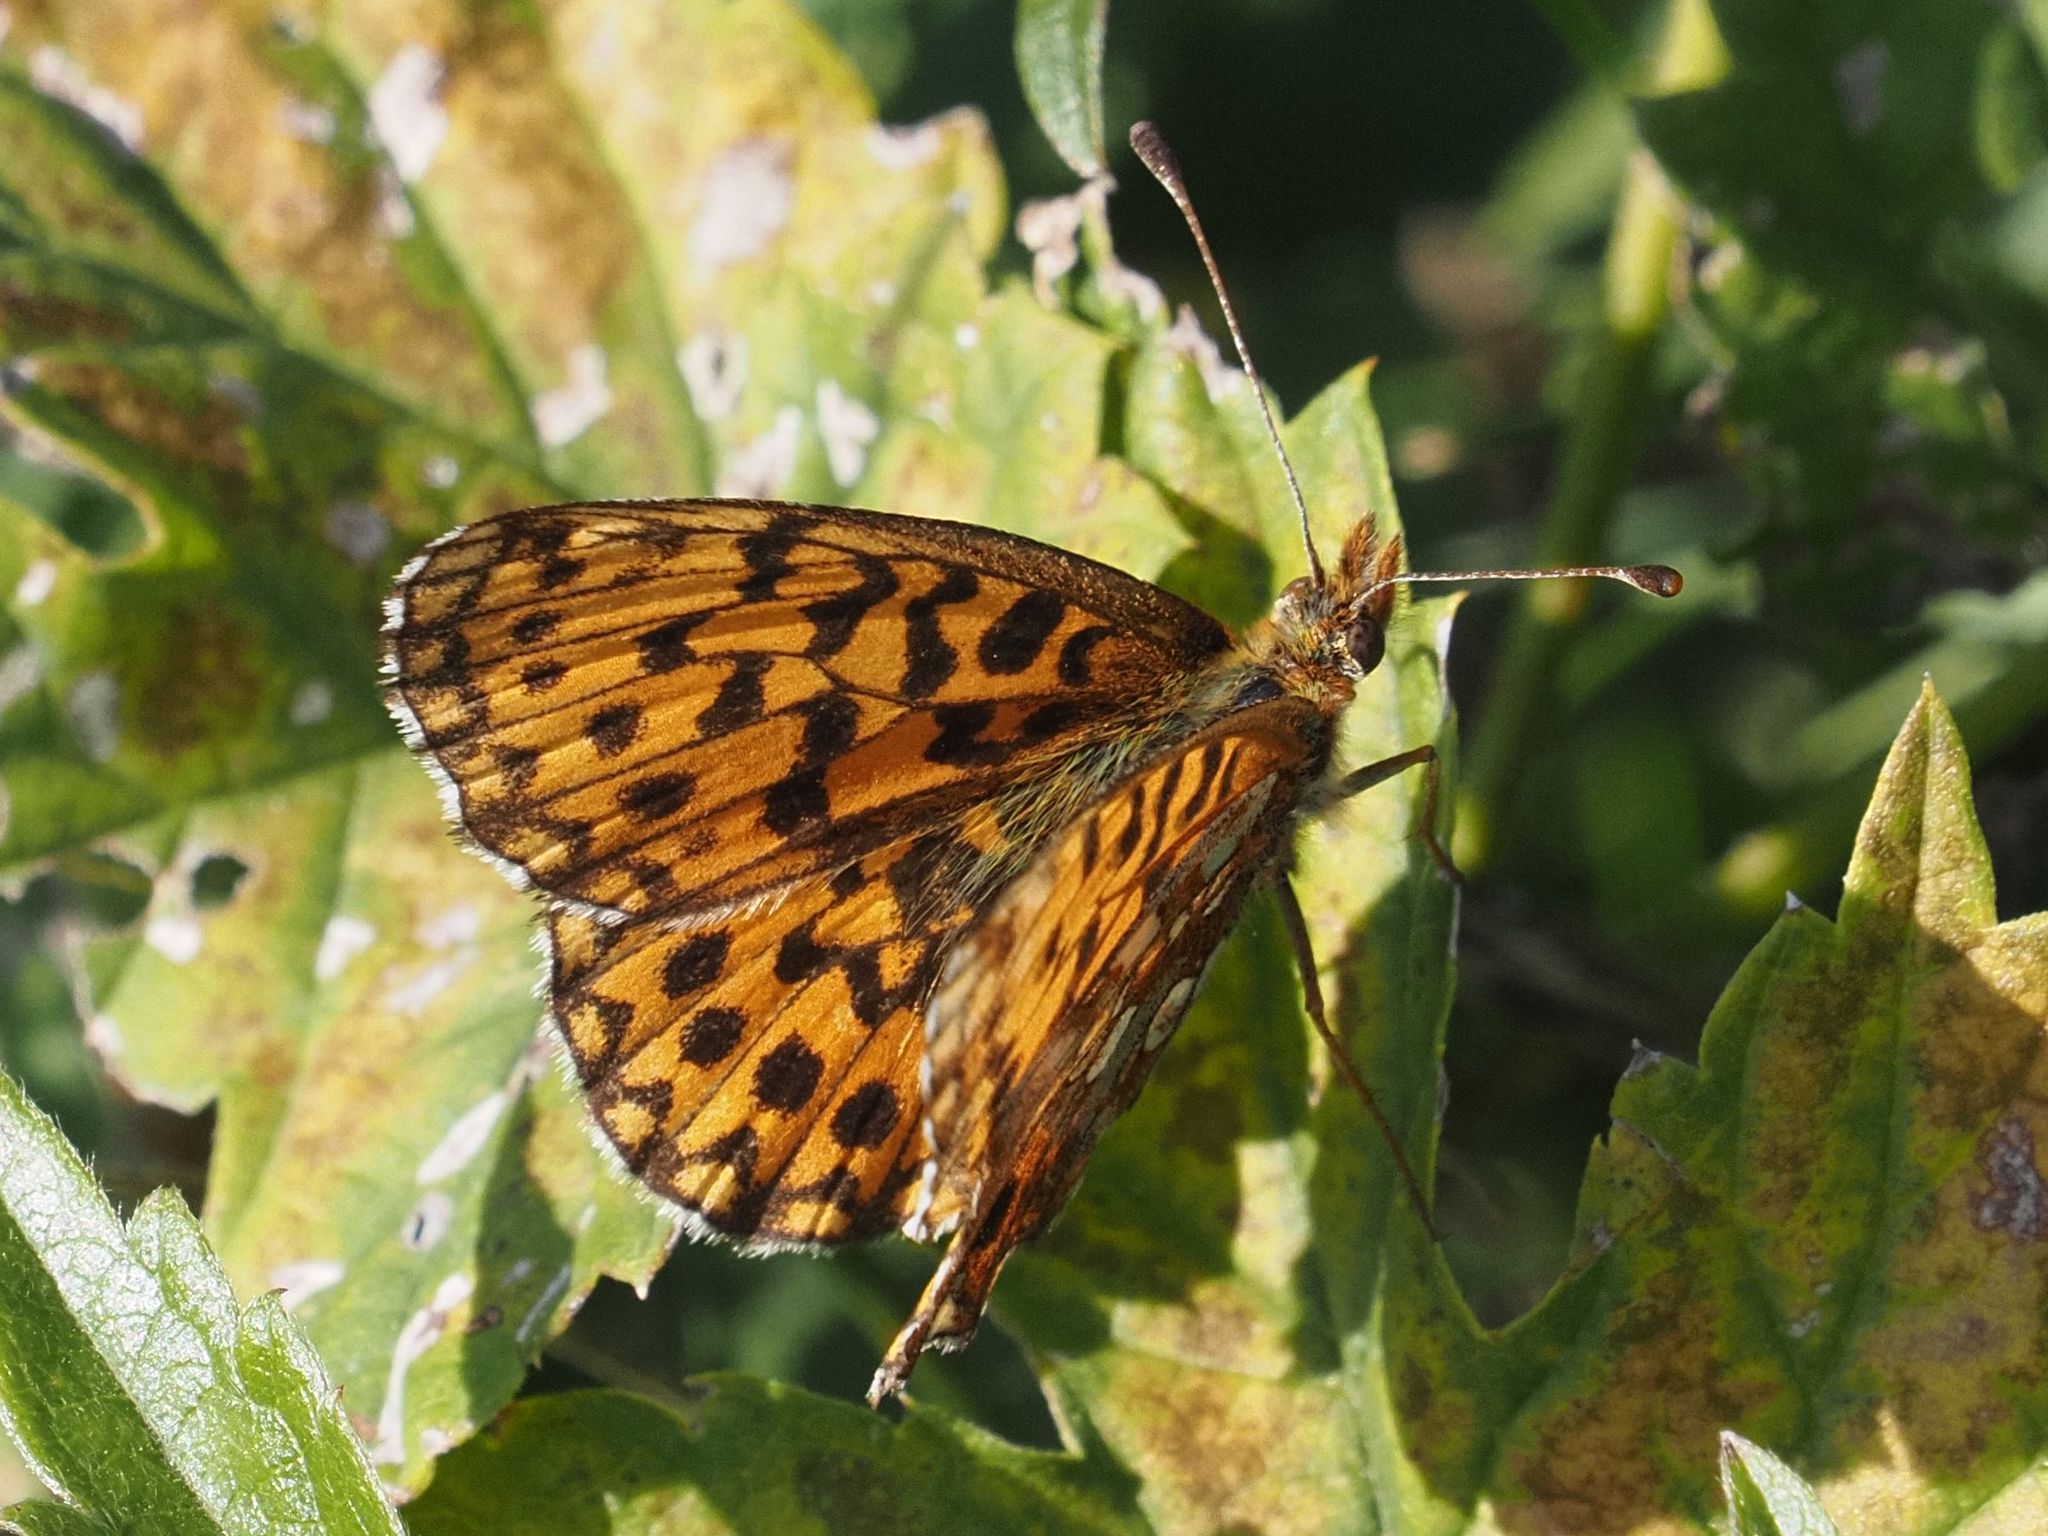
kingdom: Animalia
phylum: Arthropoda
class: Insecta
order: Lepidoptera
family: Nymphalidae
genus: Boloria
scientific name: Boloria dia
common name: Weaver's fritillary
